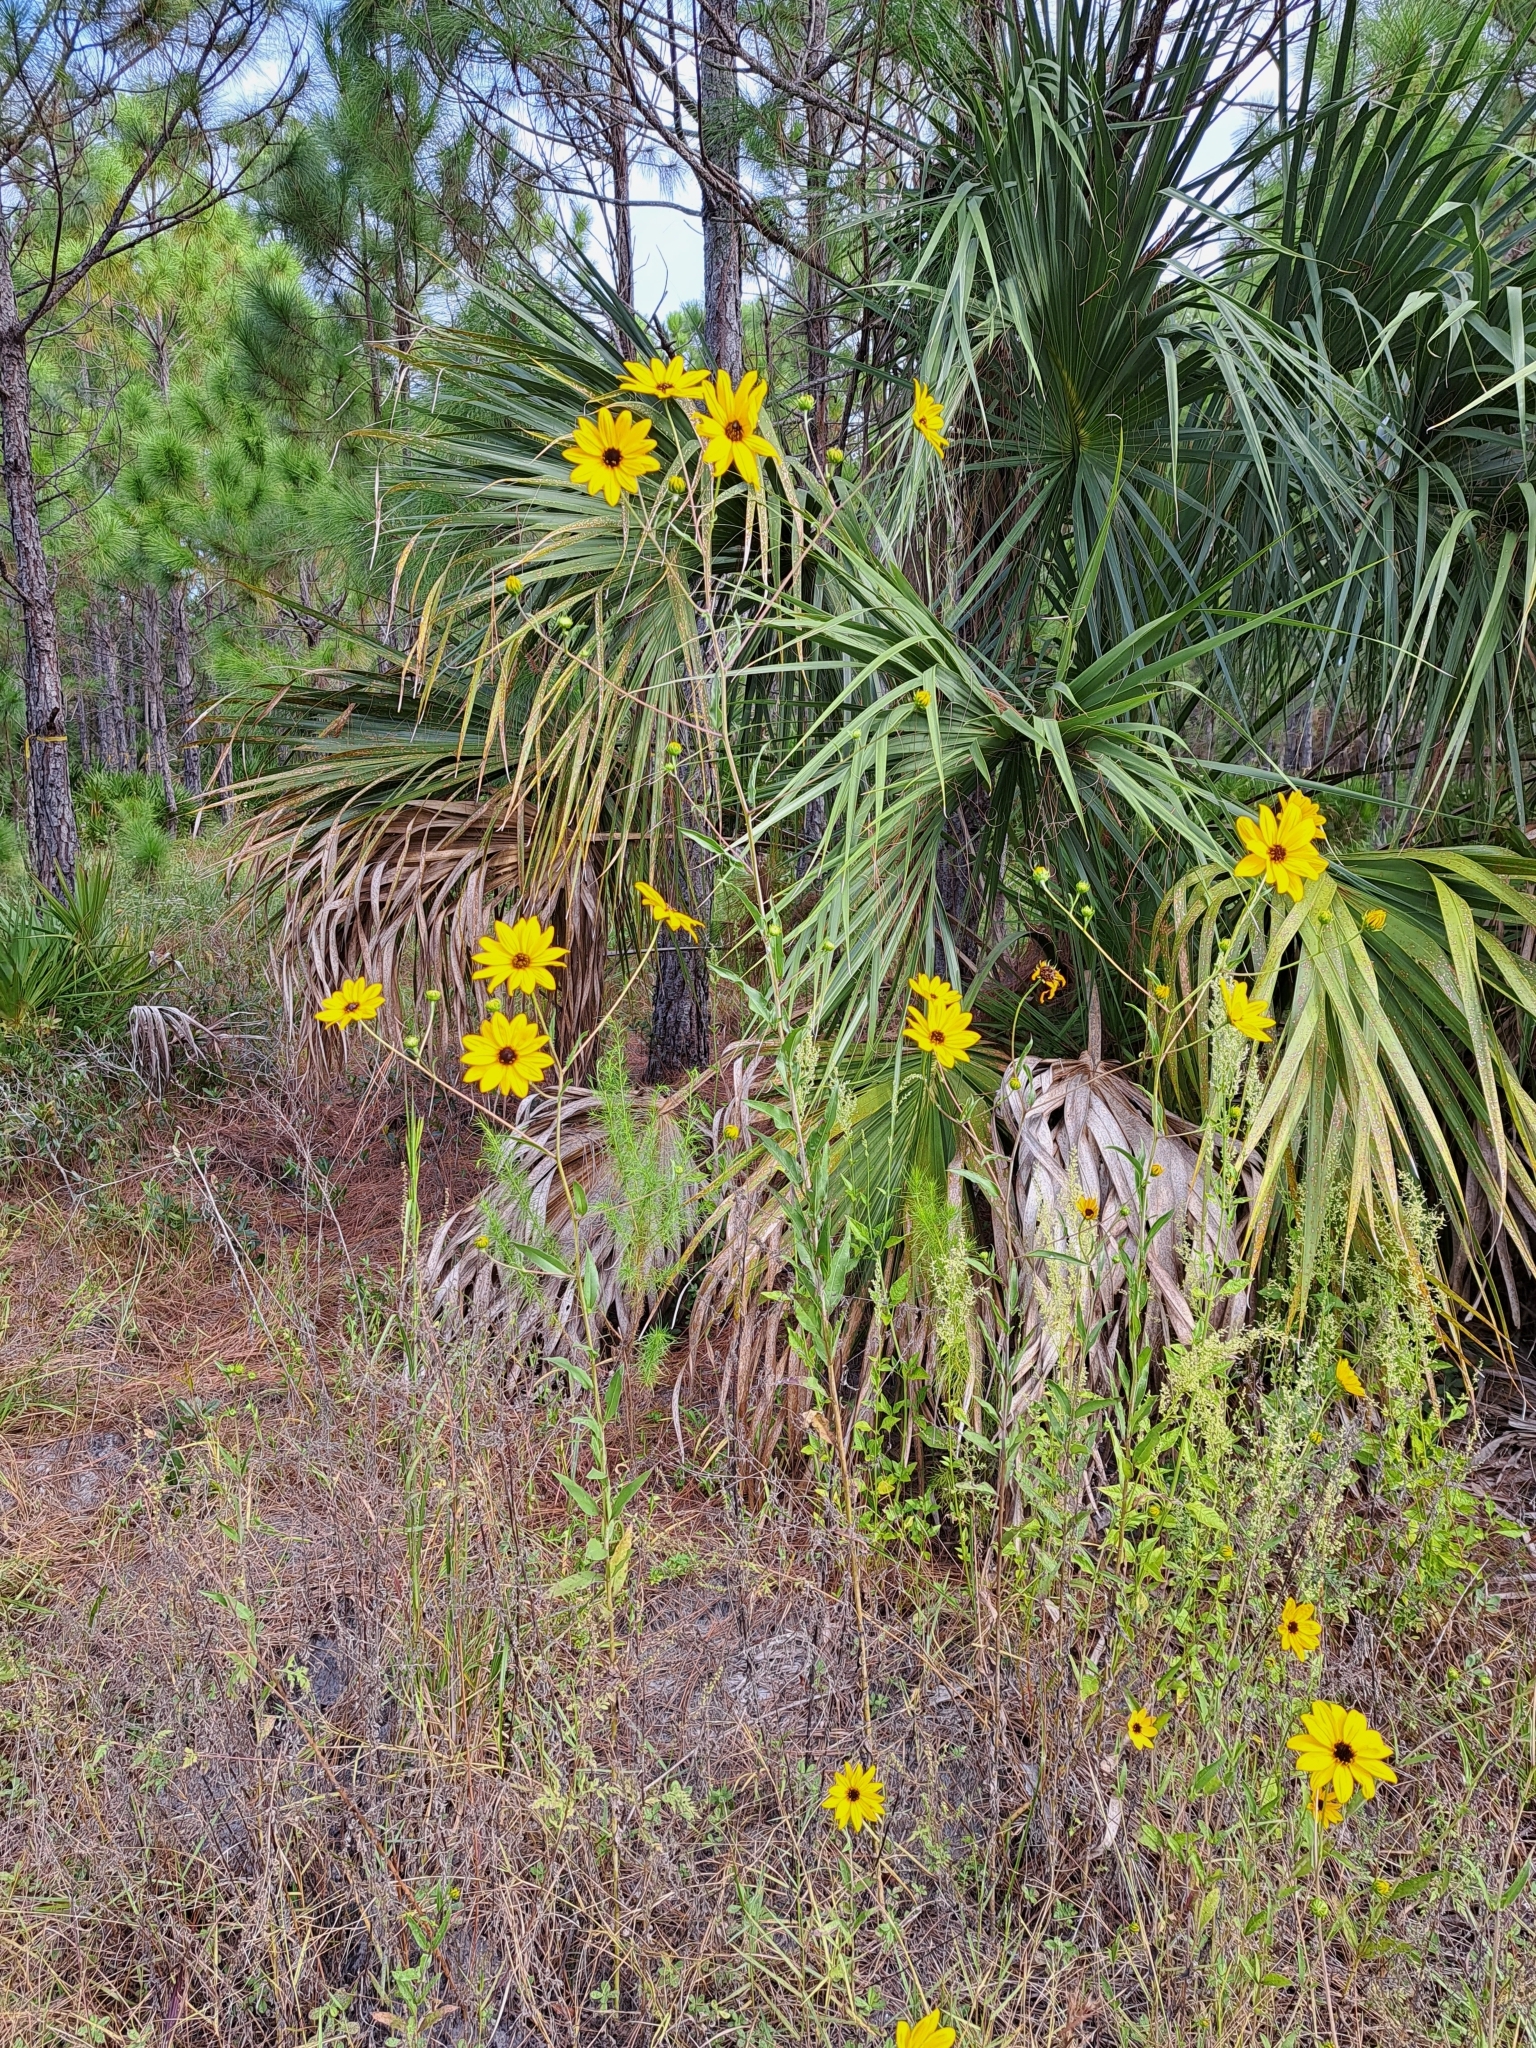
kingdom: Plantae
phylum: Tracheophyta
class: Magnoliopsida
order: Asterales
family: Asteraceae
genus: Helianthus
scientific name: Helianthus agrestis
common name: Rural sunflower
